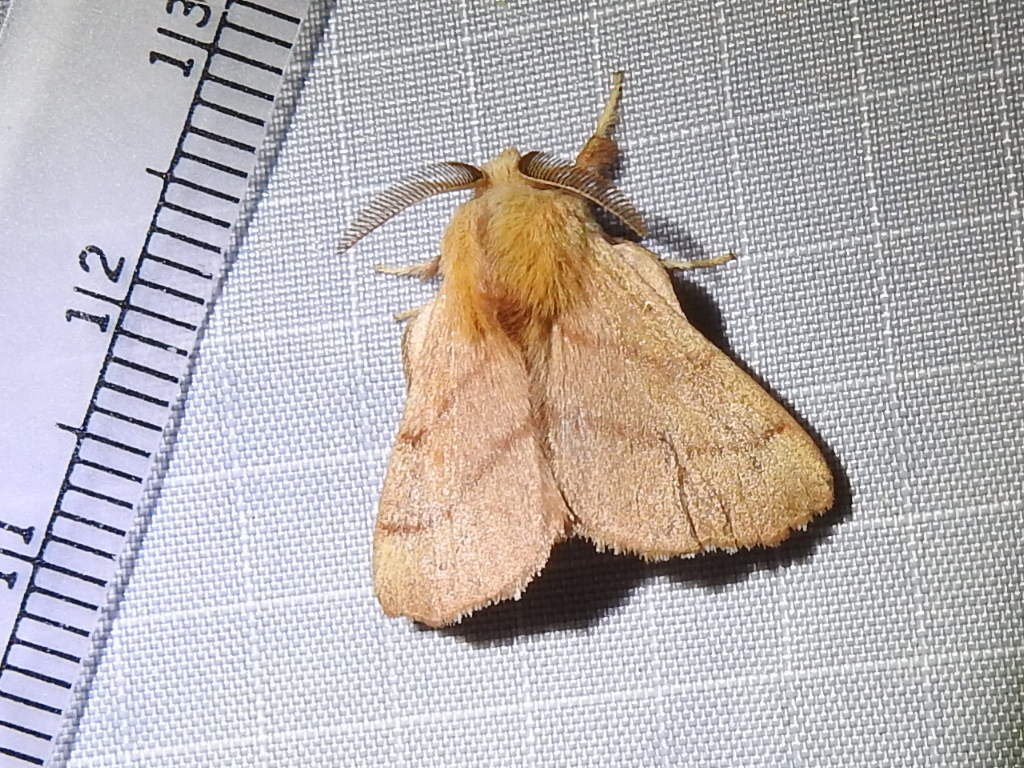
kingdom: Animalia
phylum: Arthropoda
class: Insecta
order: Lepidoptera
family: Lasiocampidae
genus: Malacosoma
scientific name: Malacosoma disstria
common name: Forest tent caterpillar
